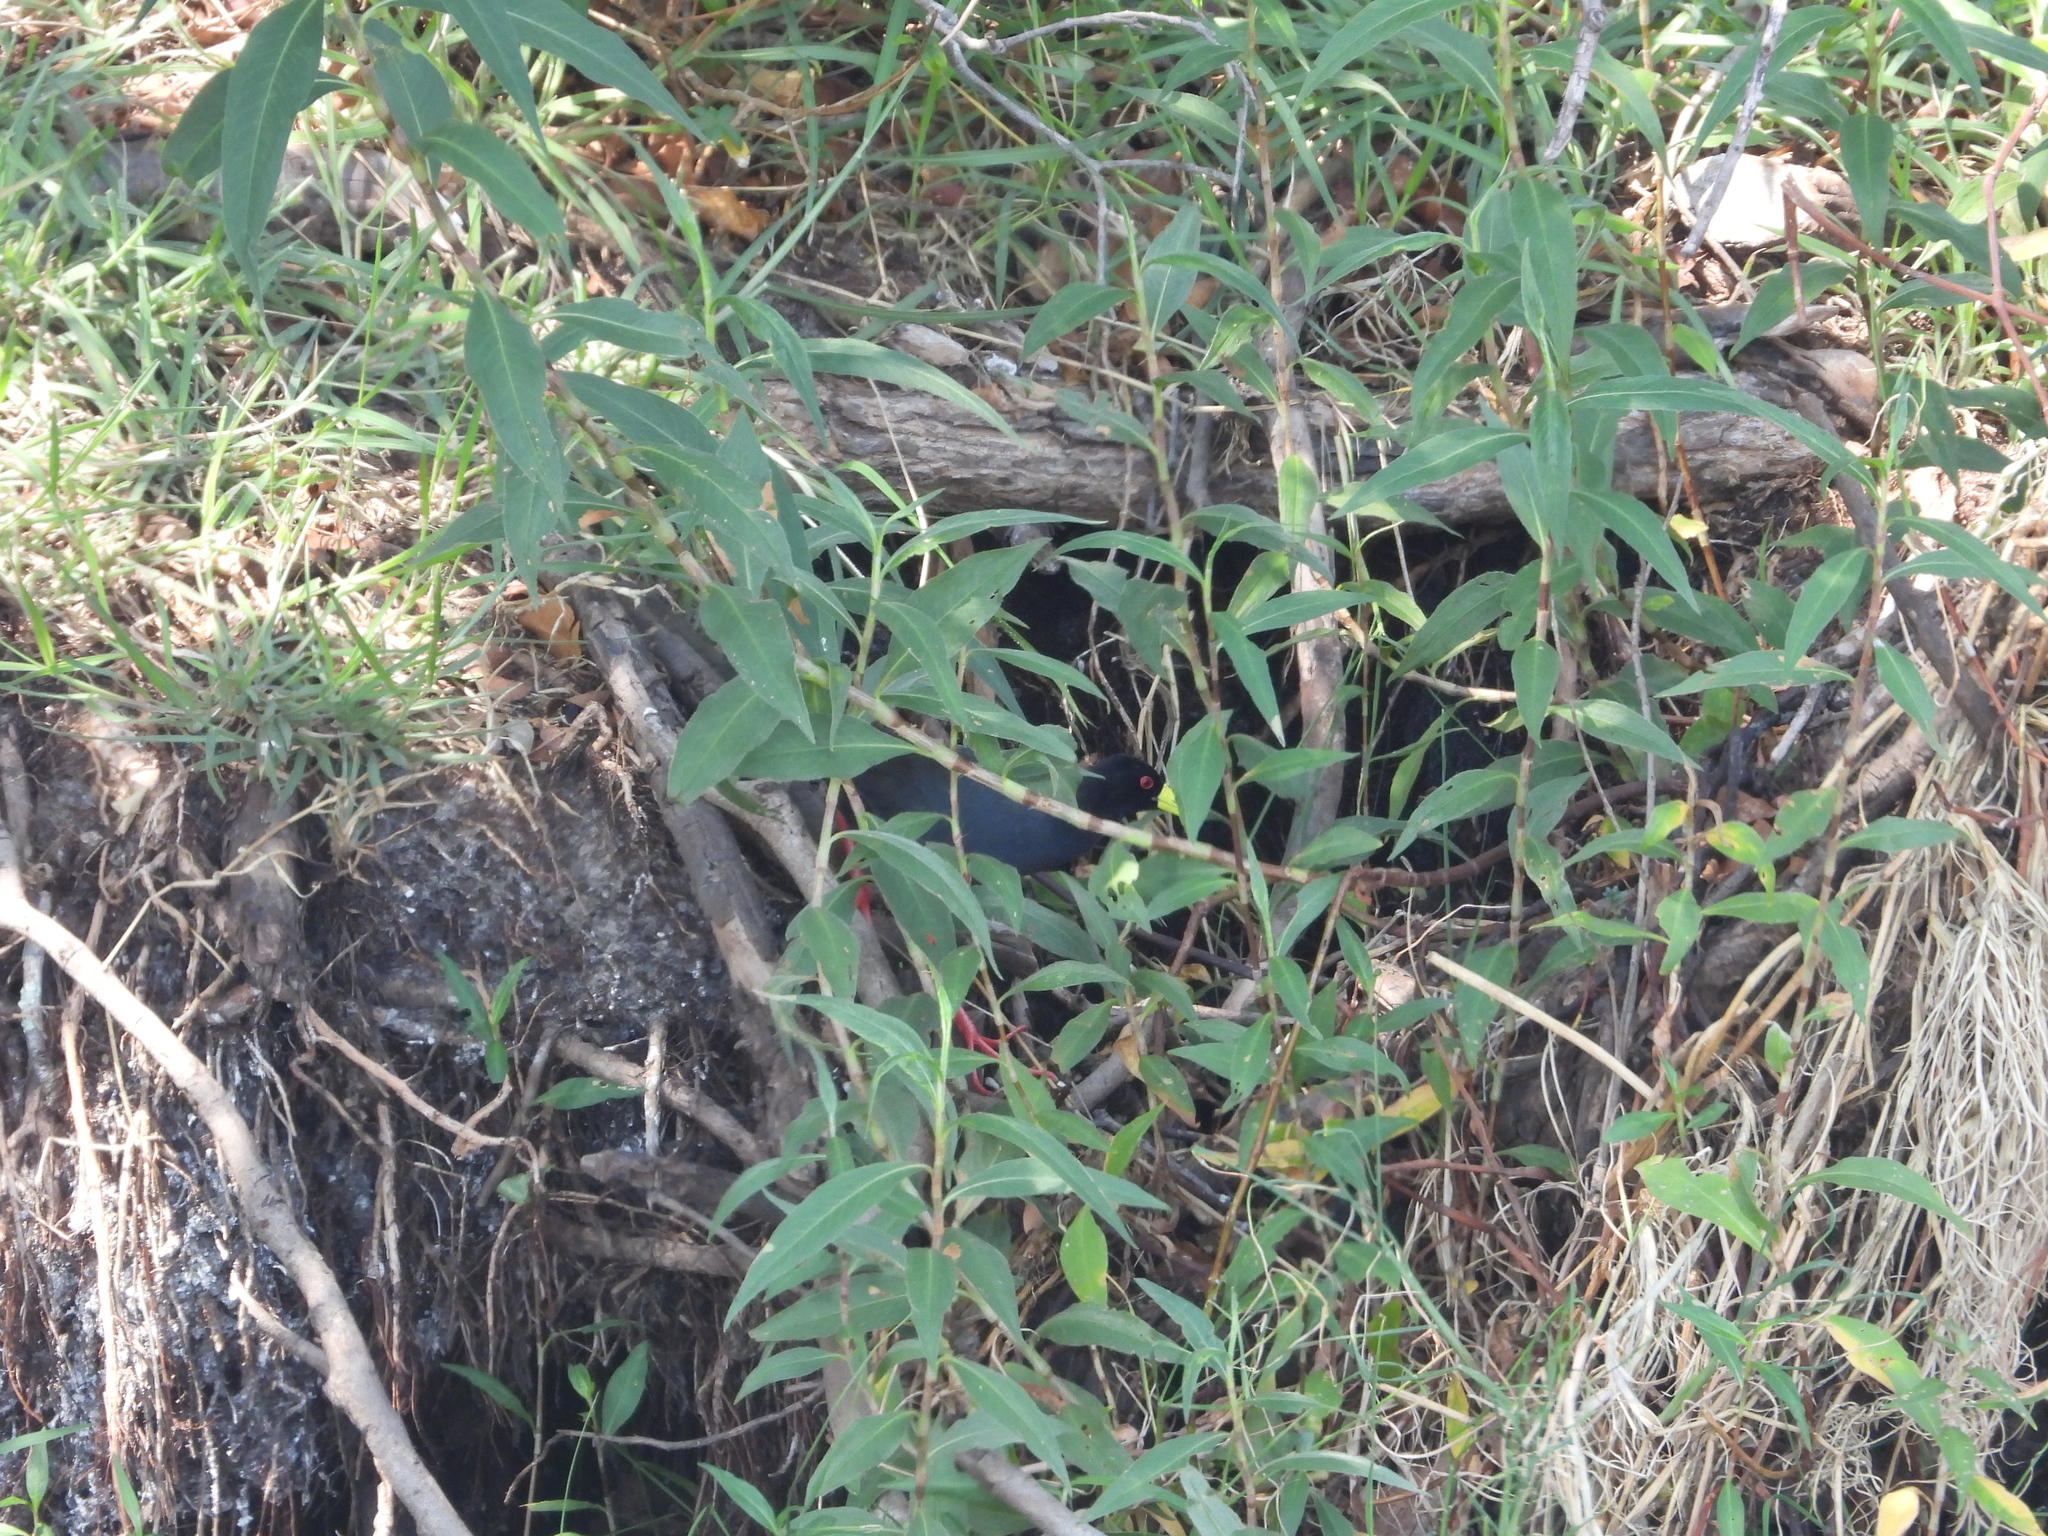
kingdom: Animalia
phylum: Chordata
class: Aves
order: Gruiformes
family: Rallidae
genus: Amaurornis
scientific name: Amaurornis flavirostra
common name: Black crake
